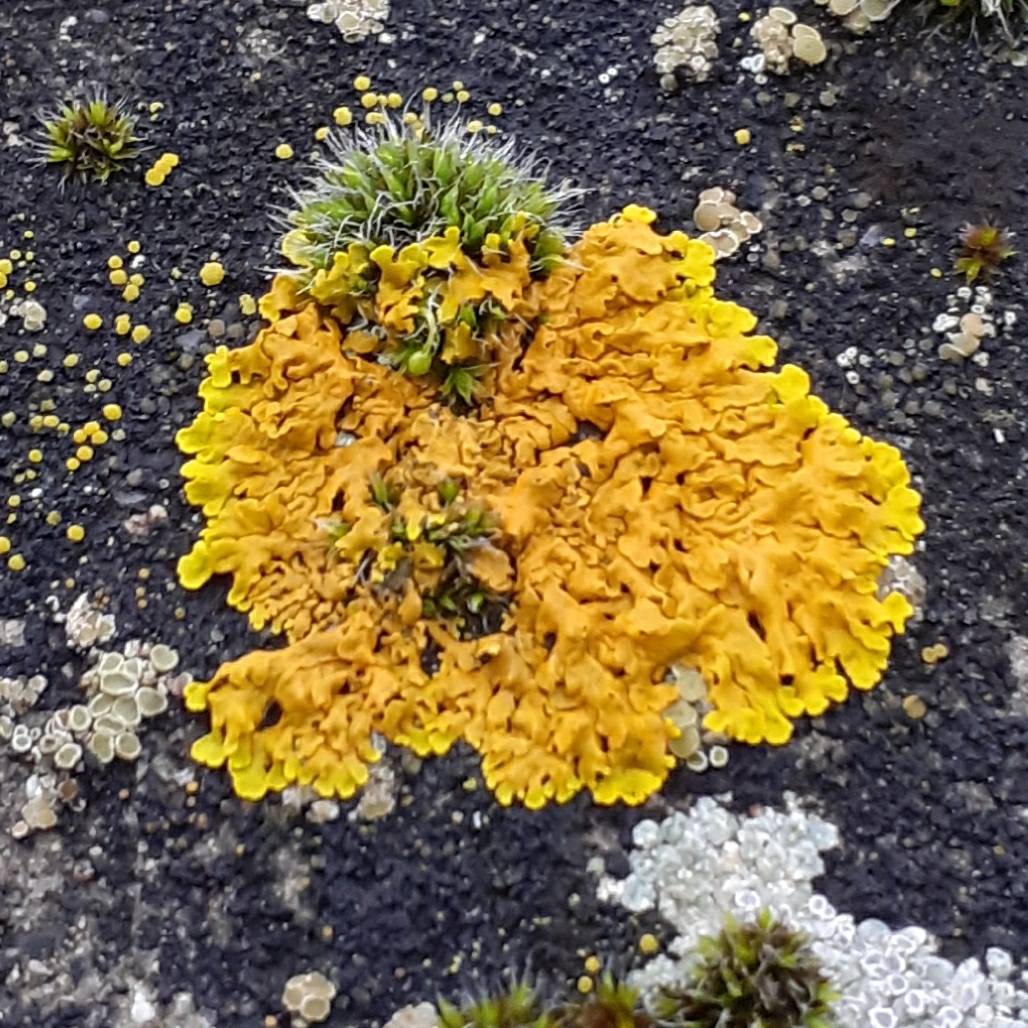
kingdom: Fungi
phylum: Ascomycota
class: Lecanoromycetes
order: Teloschistales
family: Teloschistaceae
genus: Xanthoria
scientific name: Xanthoria parietina
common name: Common orange lichen
